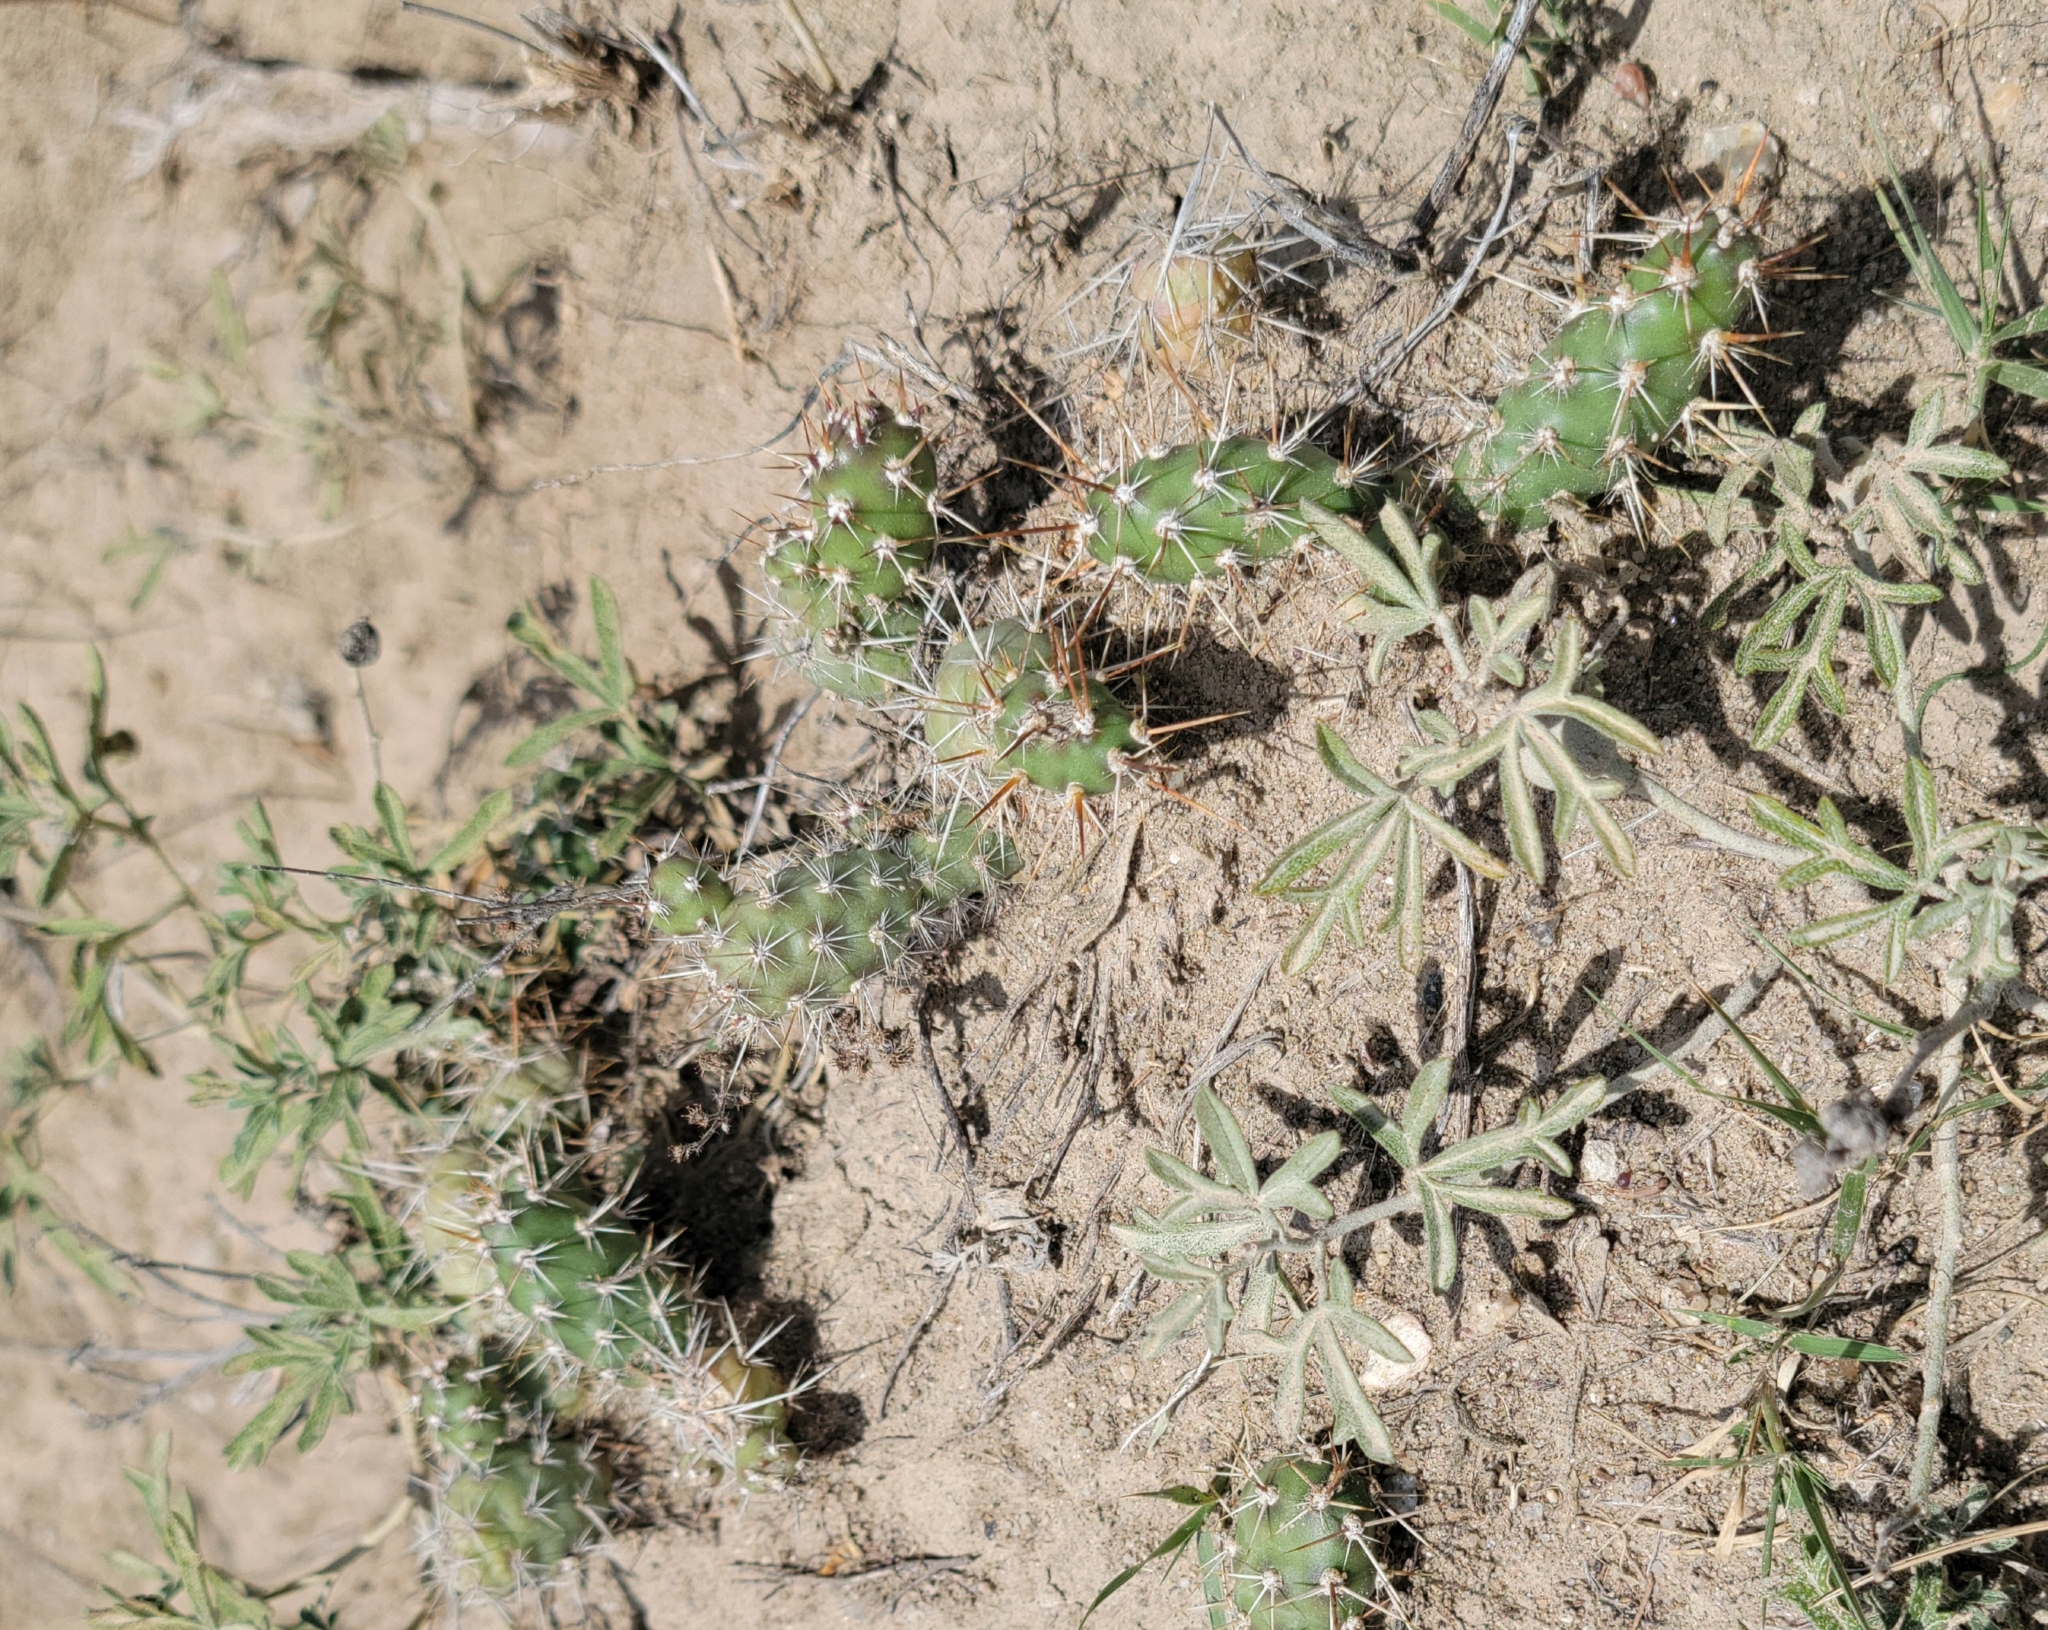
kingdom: Plantae
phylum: Tracheophyta
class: Magnoliopsida
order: Caryophyllales
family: Cactaceae
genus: Opuntia
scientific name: Opuntia fragilis
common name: Brittle cactus
